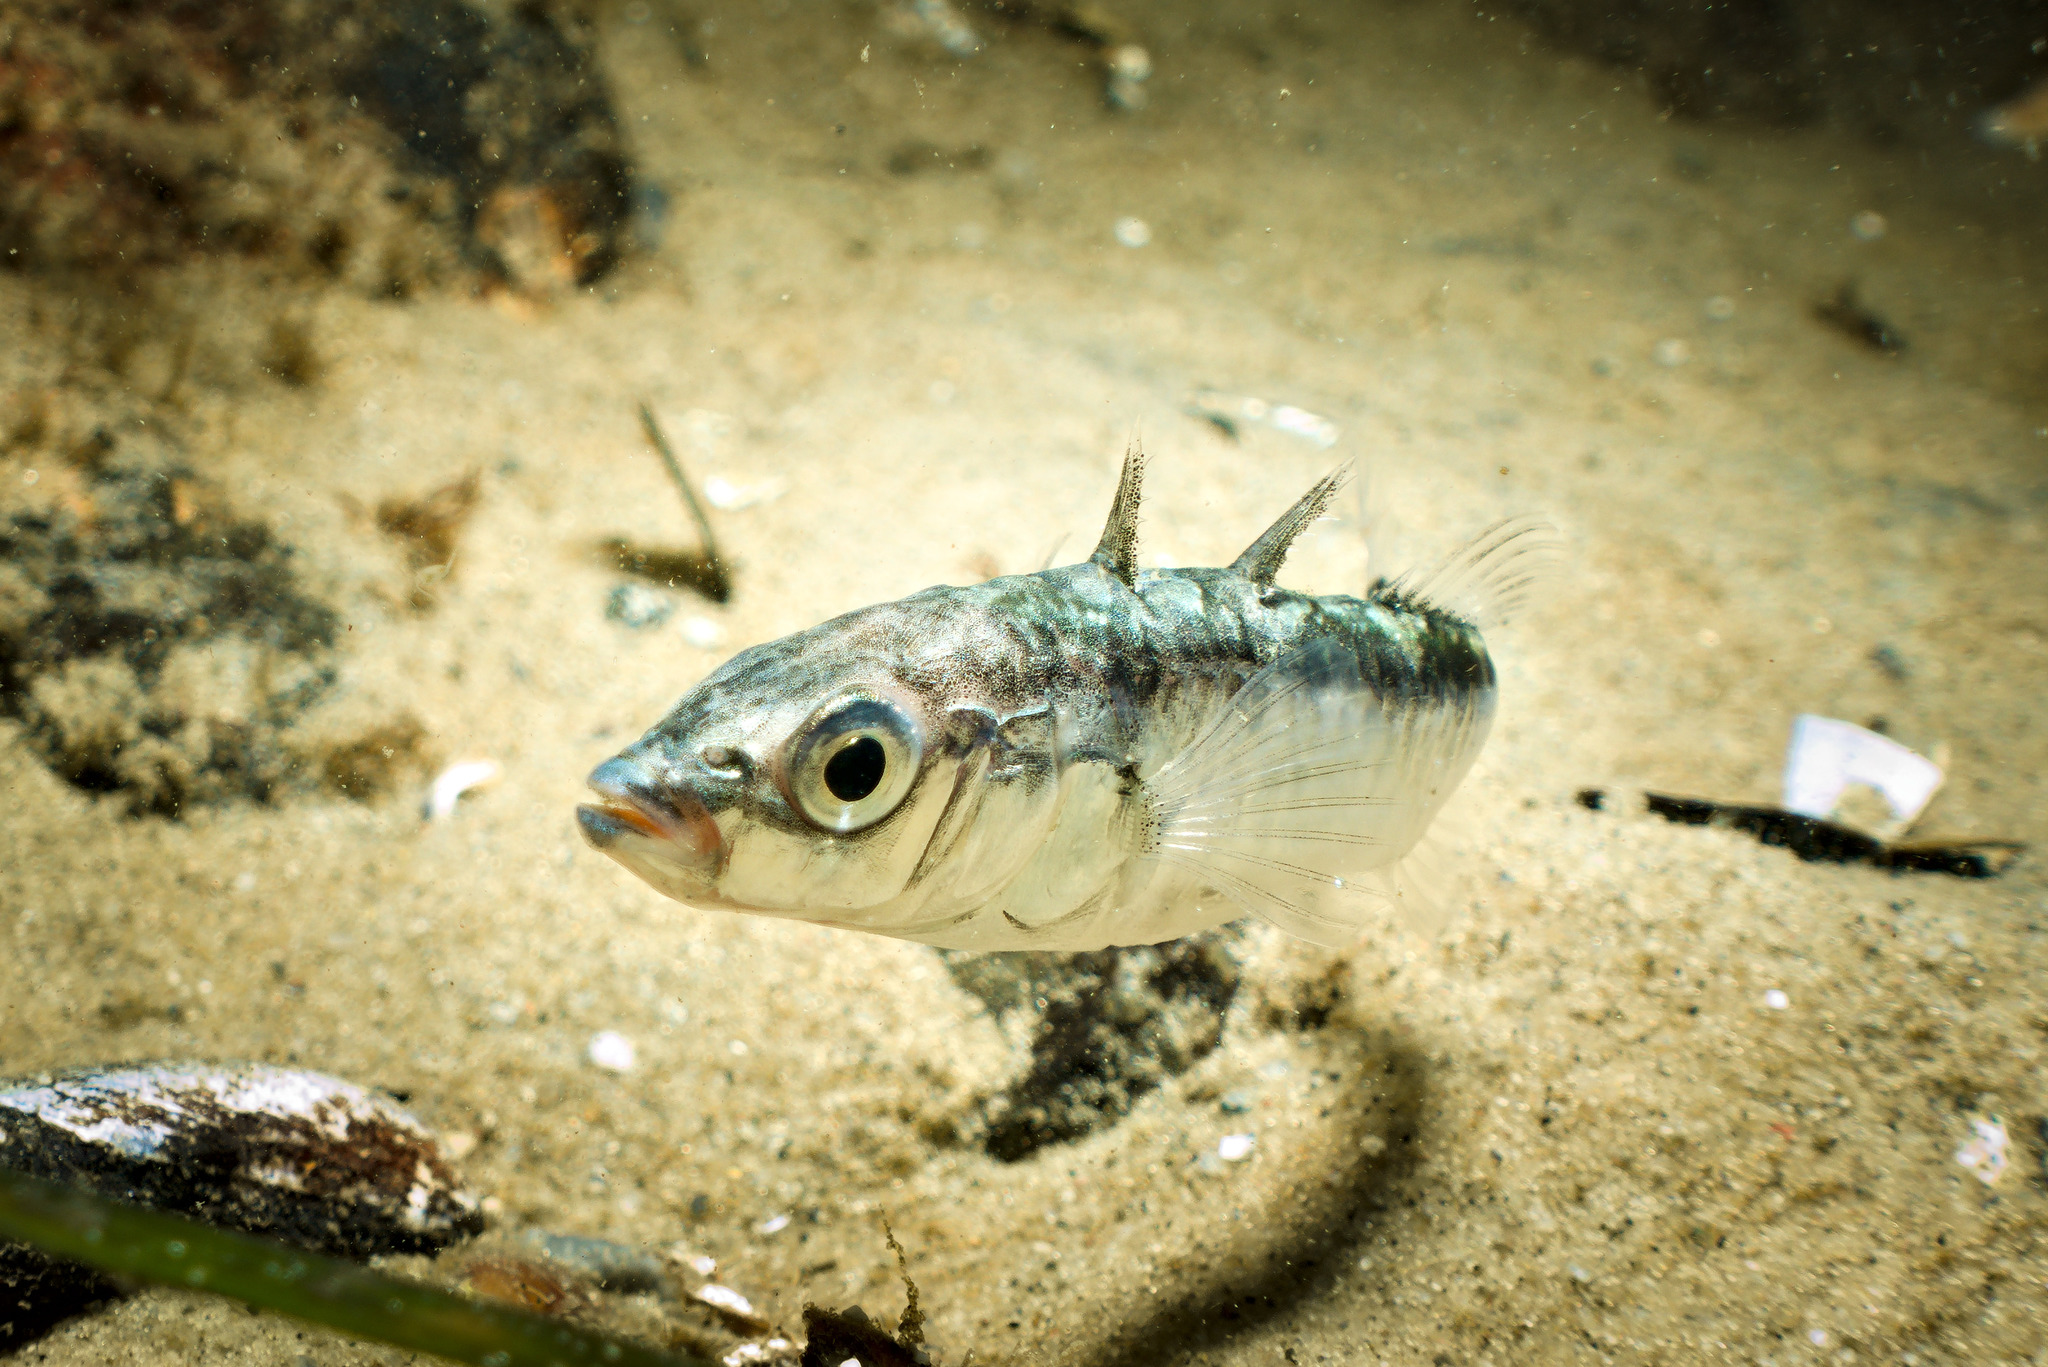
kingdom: Animalia
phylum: Chordata
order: Gasterosteiformes
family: Gasterosteidae
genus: Gasterosteus
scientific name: Gasterosteus aculeatus
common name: Three-spined stickleback
